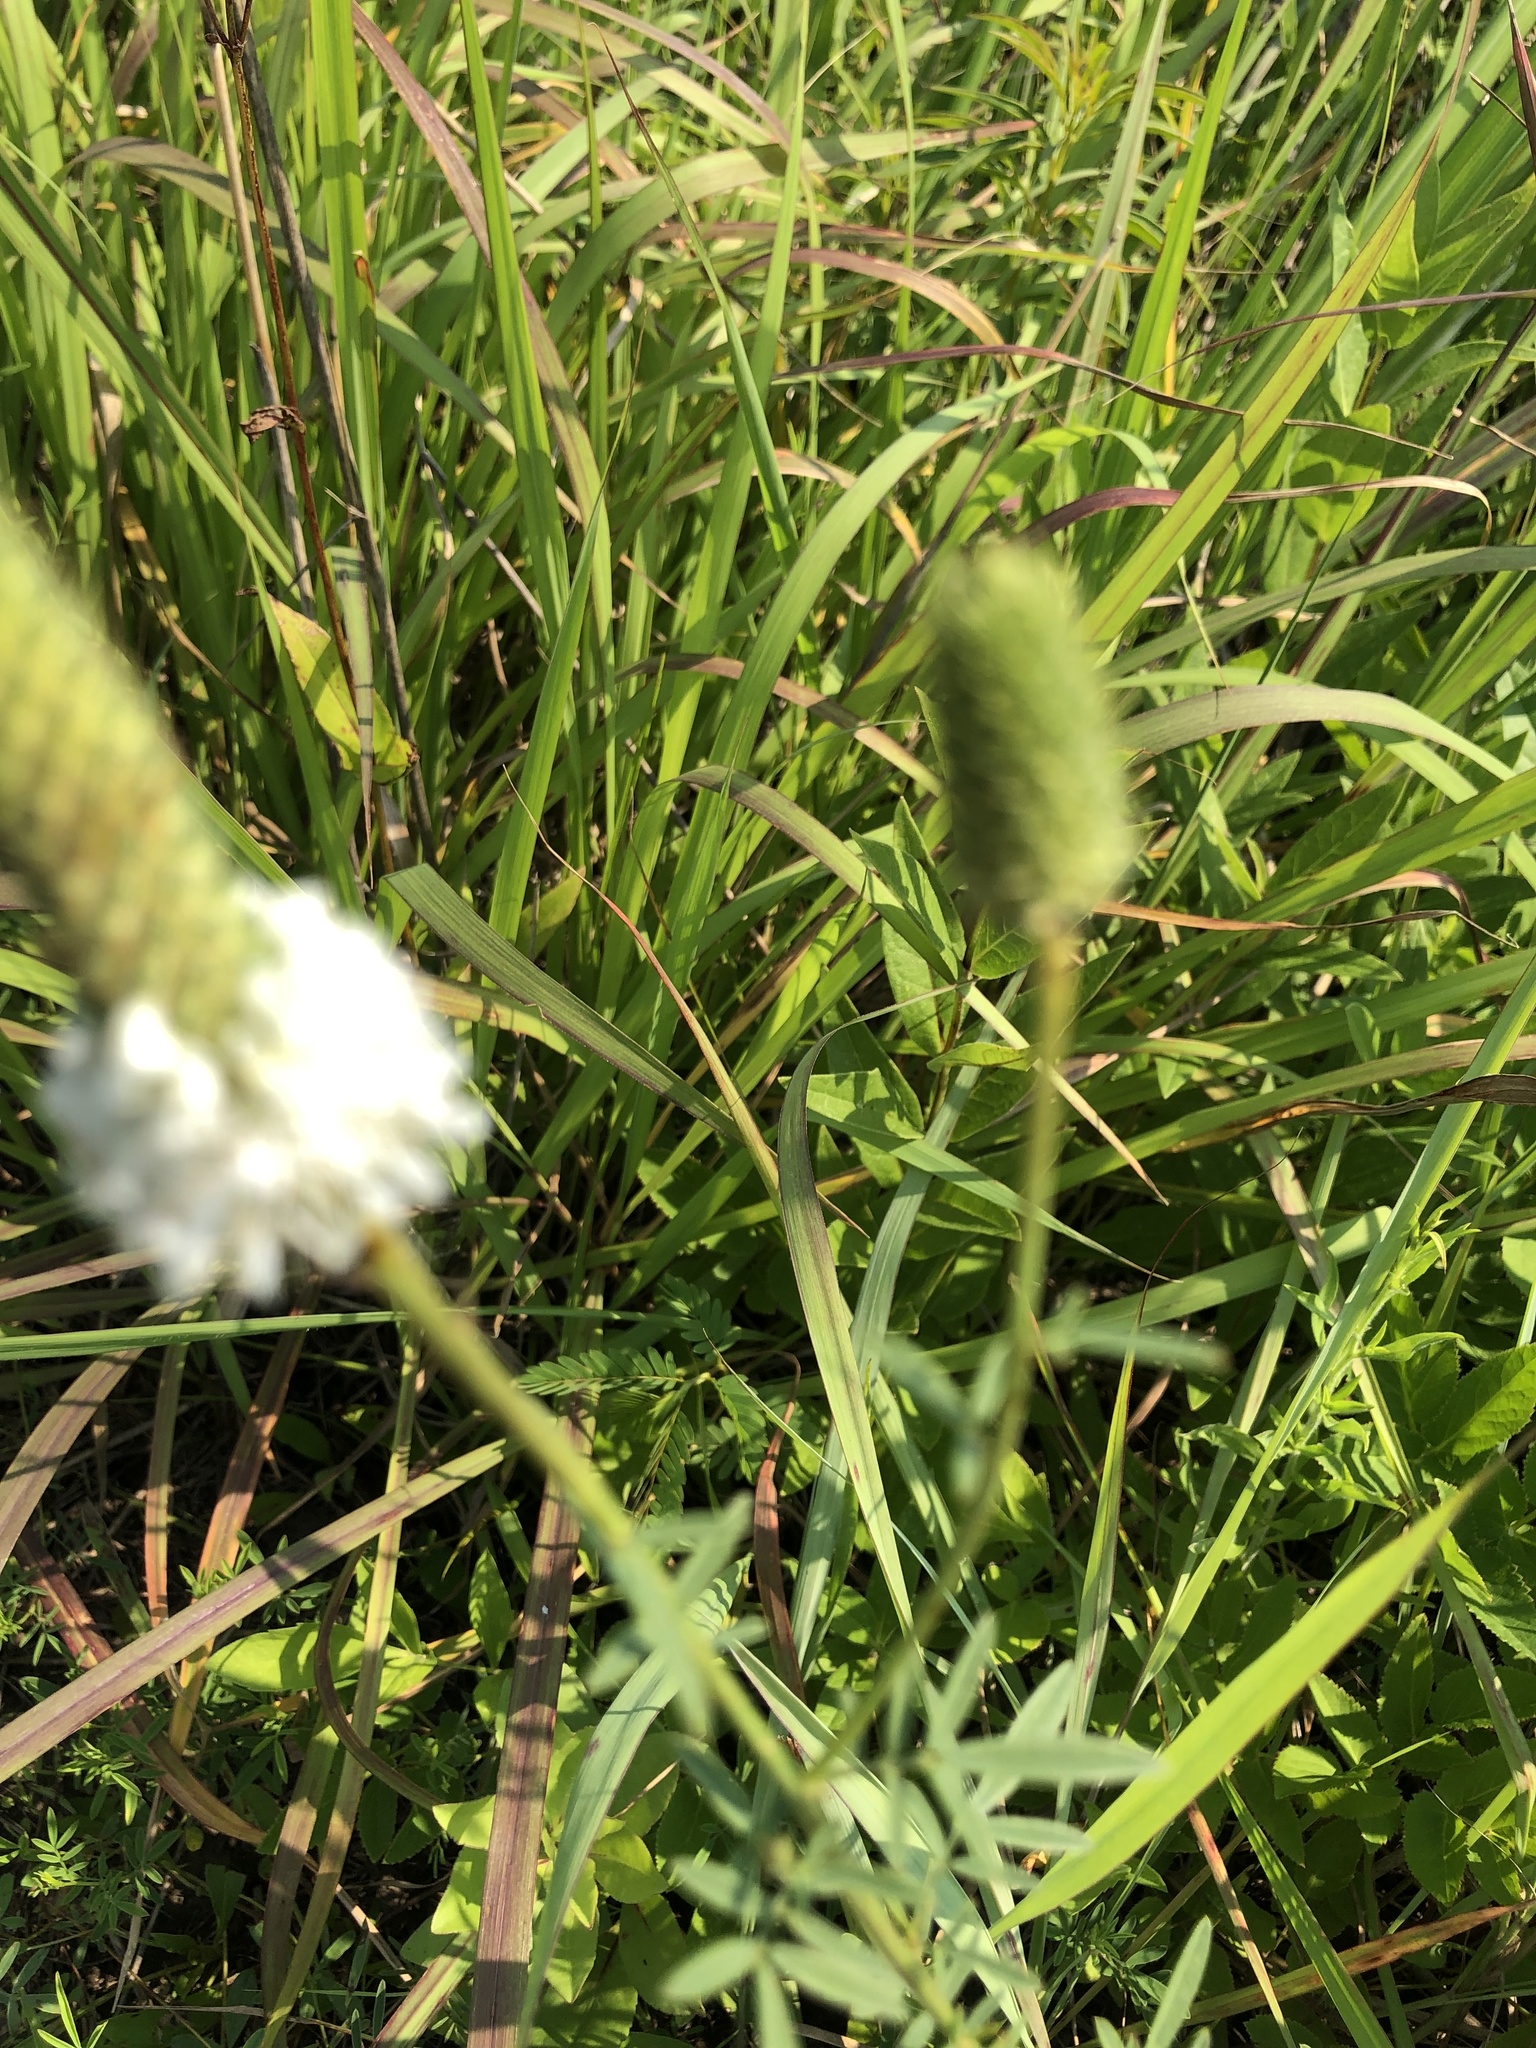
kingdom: Plantae
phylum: Tracheophyta
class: Magnoliopsida
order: Fabales
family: Fabaceae
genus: Dalea
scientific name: Dalea candida
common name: White prairie-clover
